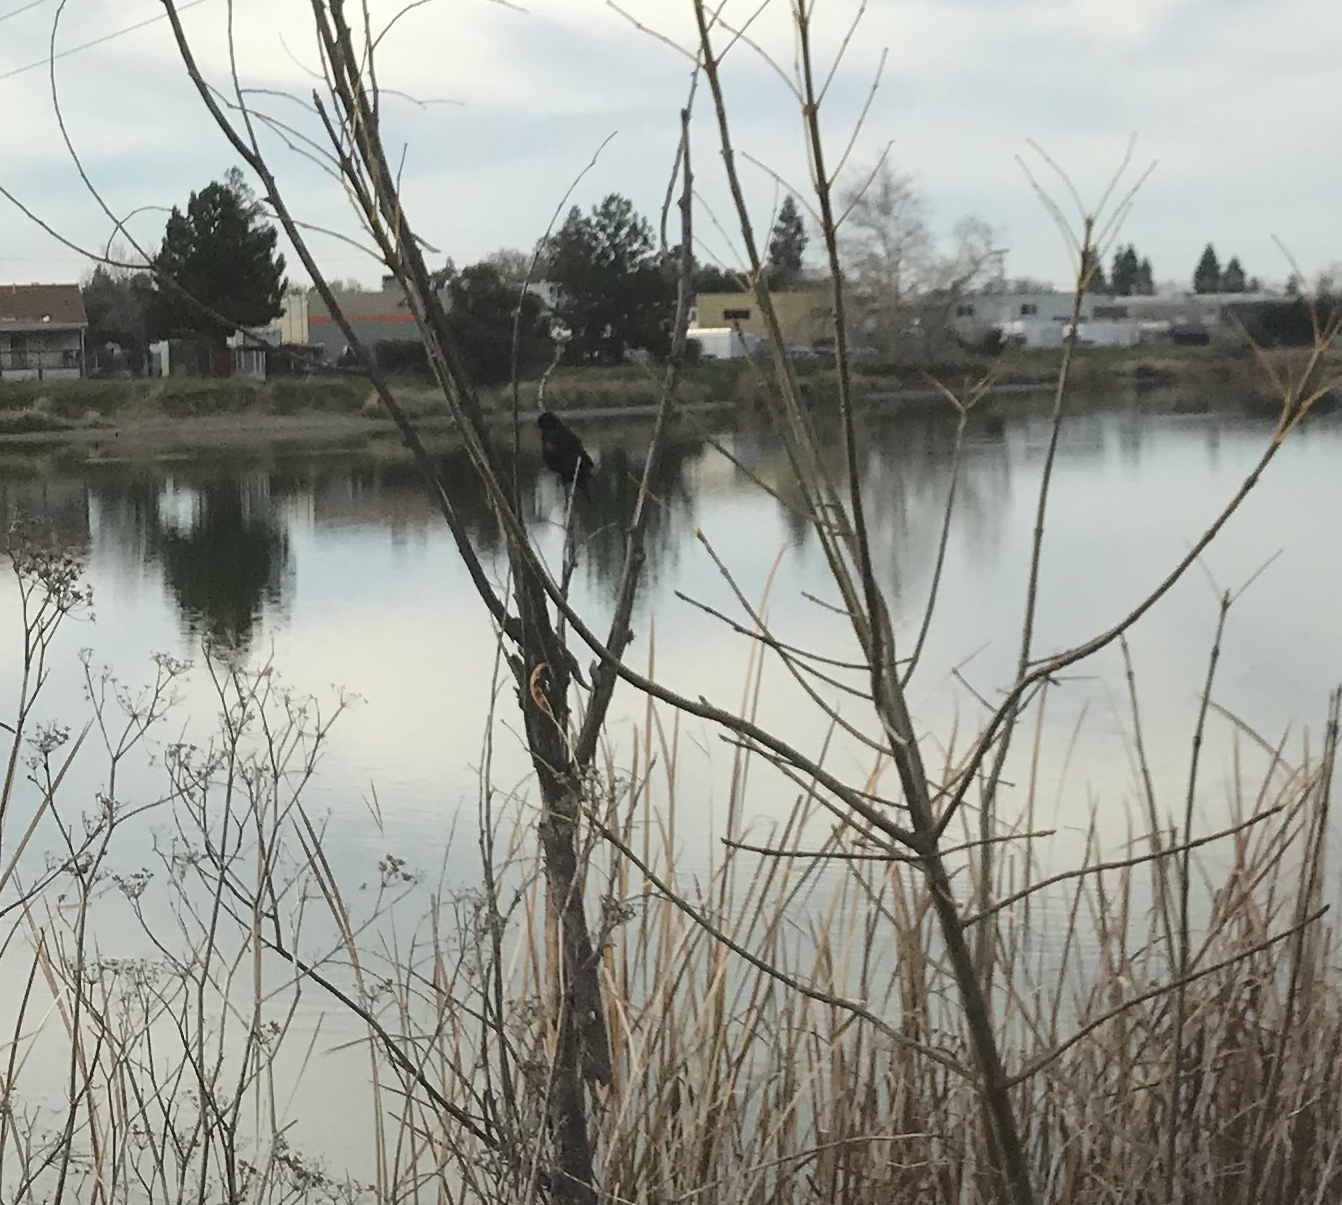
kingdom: Animalia
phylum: Chordata
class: Aves
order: Passeriformes
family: Icteridae
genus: Agelaius
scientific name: Agelaius phoeniceus
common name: Red-winged blackbird
